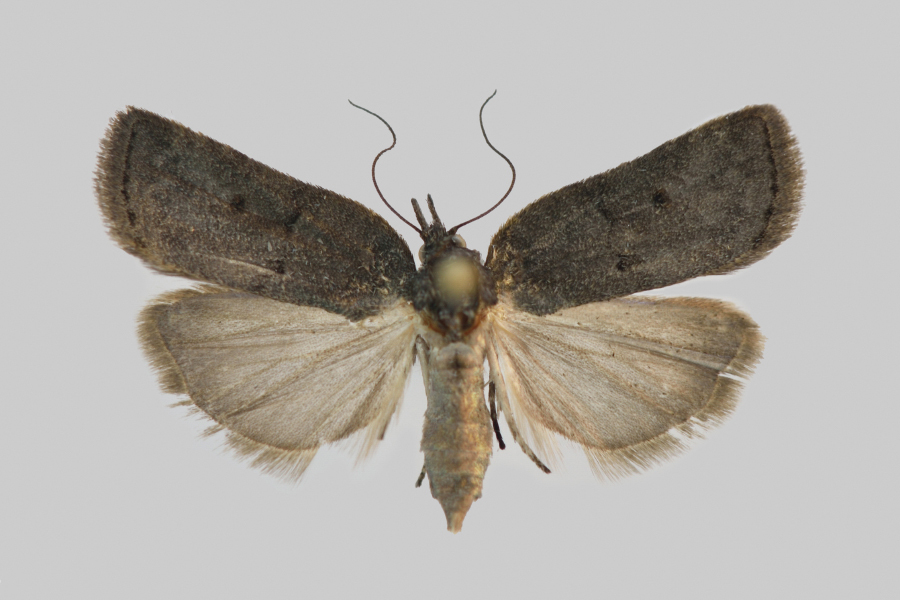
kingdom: Animalia
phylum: Arthropoda
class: Insecta
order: Lepidoptera
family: Nolidae
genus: Nycteola
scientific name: Nycteola revayana
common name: Oak nycteoline
